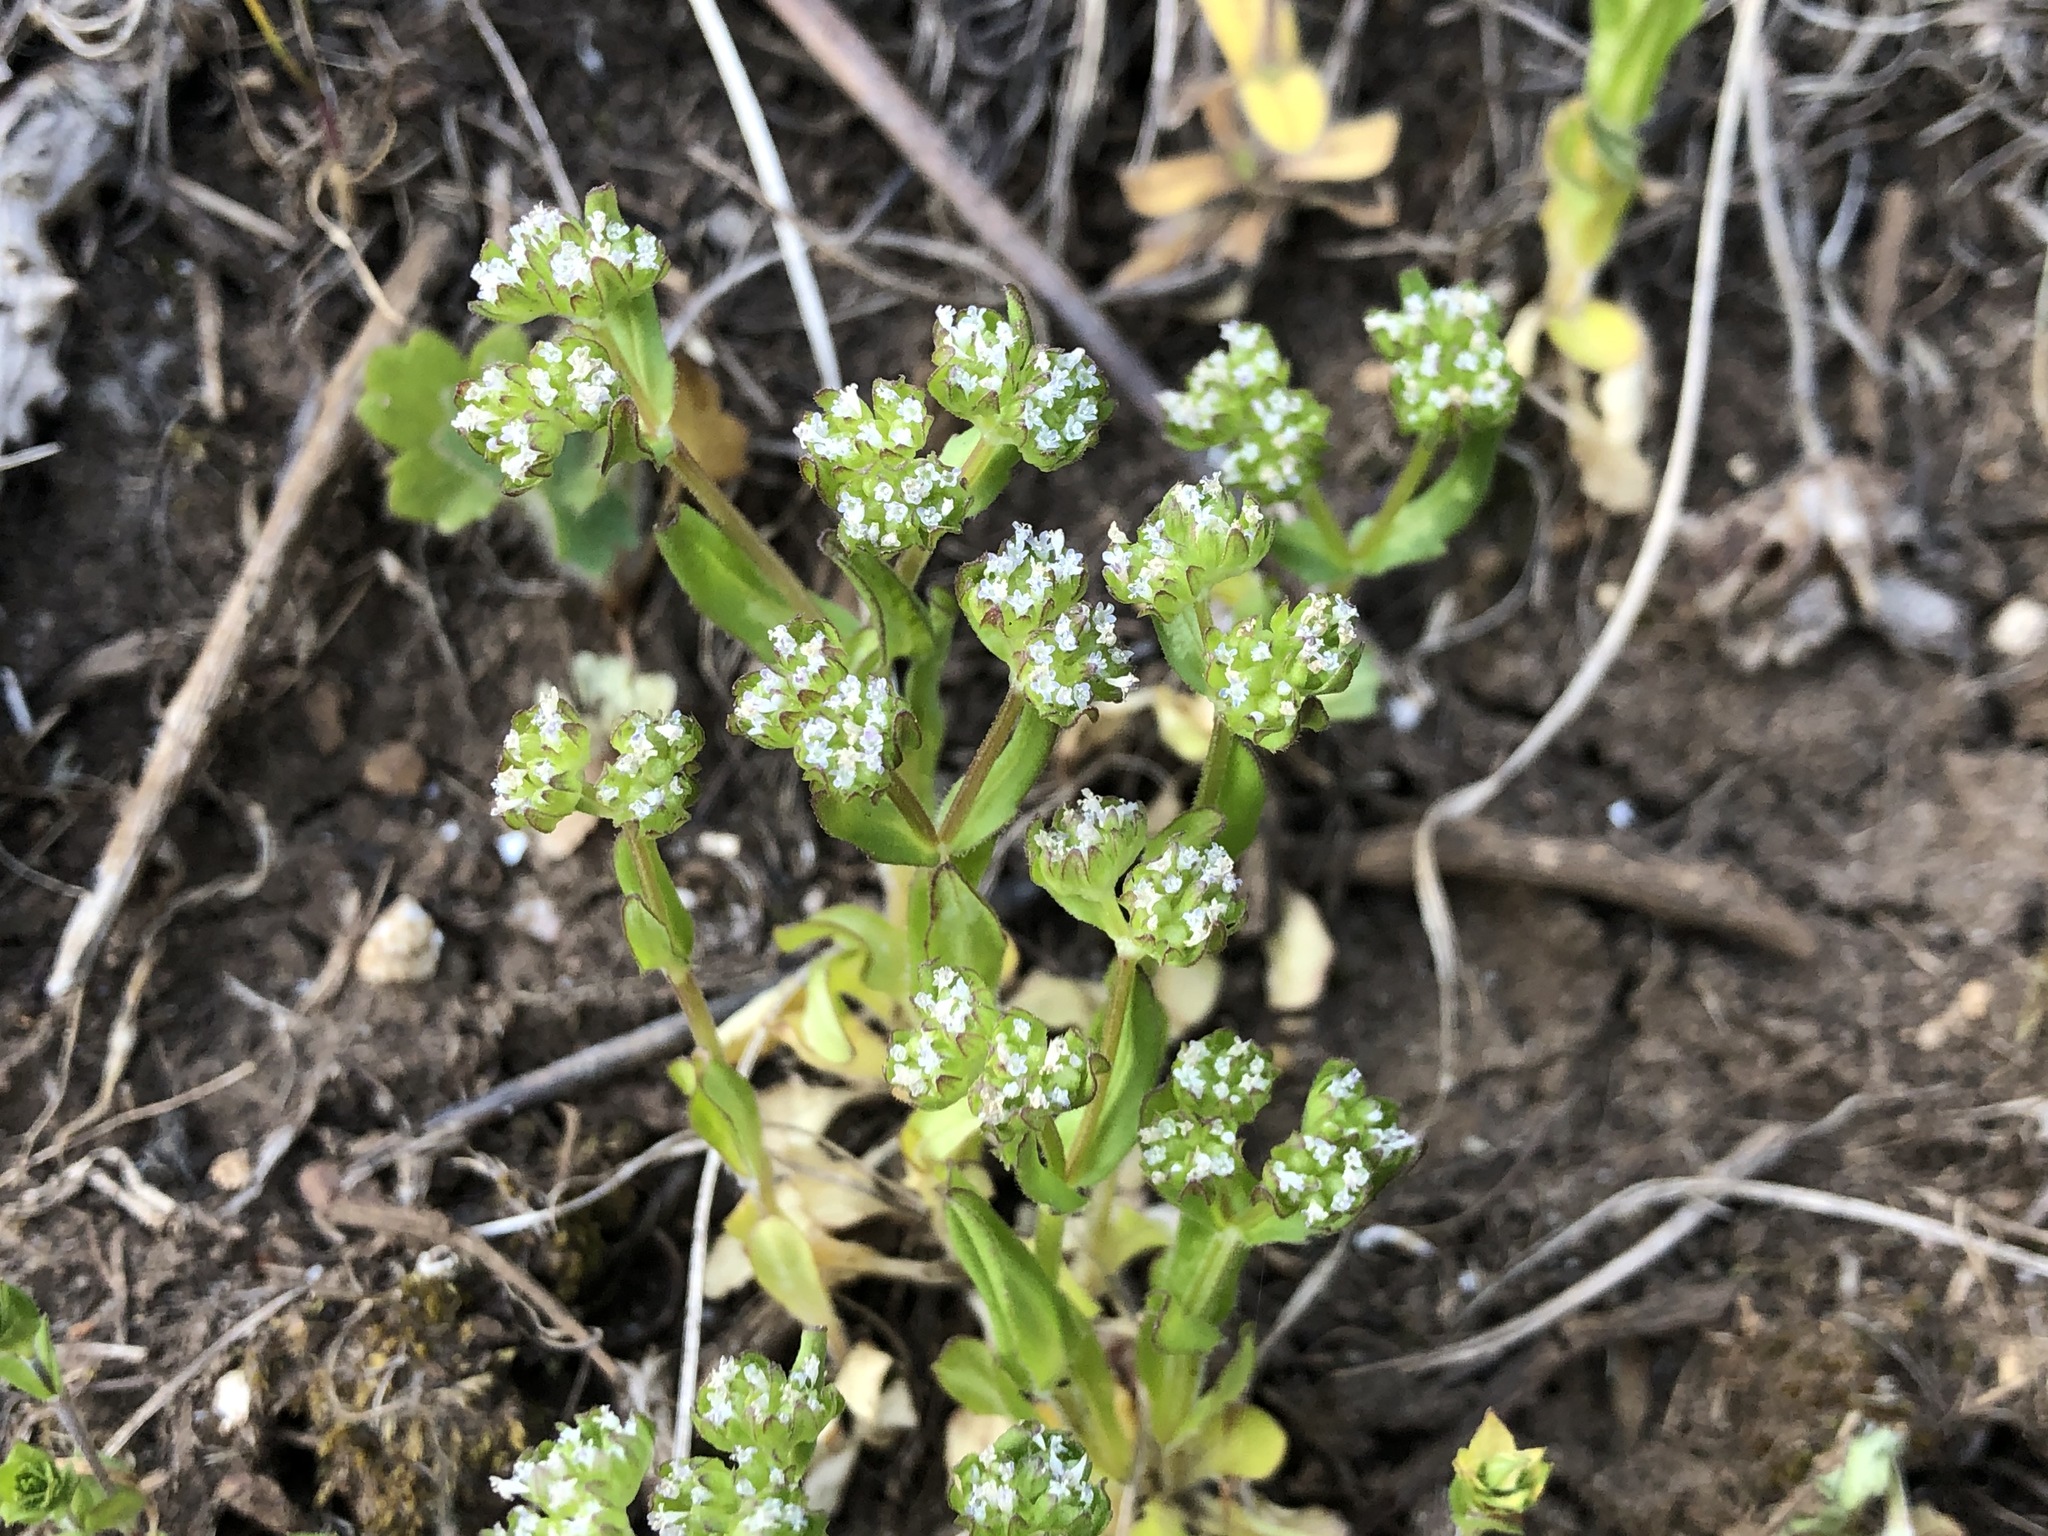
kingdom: Plantae
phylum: Tracheophyta
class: Magnoliopsida
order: Dipsacales
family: Caprifoliaceae
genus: Valerianella
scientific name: Valerianella locusta
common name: Common cornsalad
